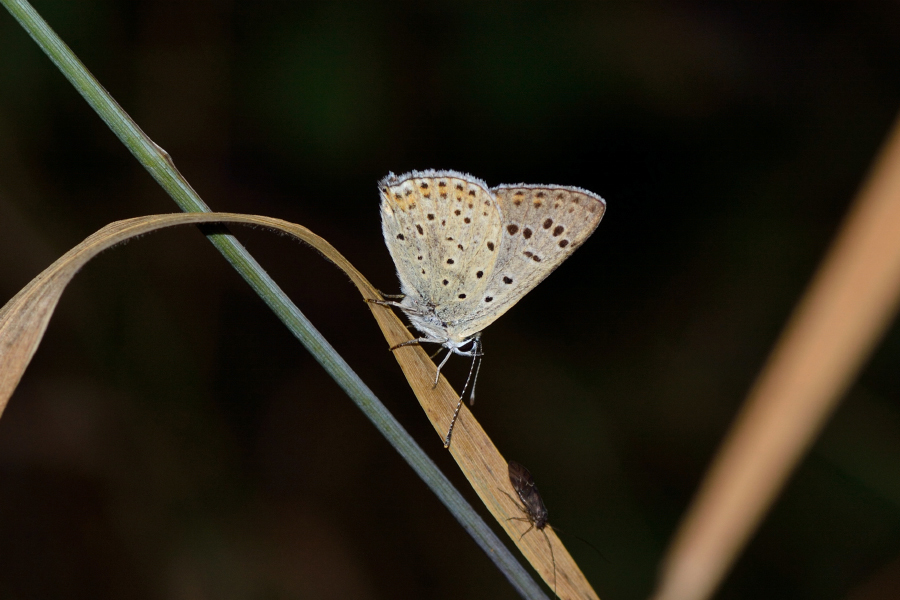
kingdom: Animalia
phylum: Arthropoda
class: Insecta
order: Lepidoptera
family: Lycaenidae
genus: Loweia
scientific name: Loweia tityrus
